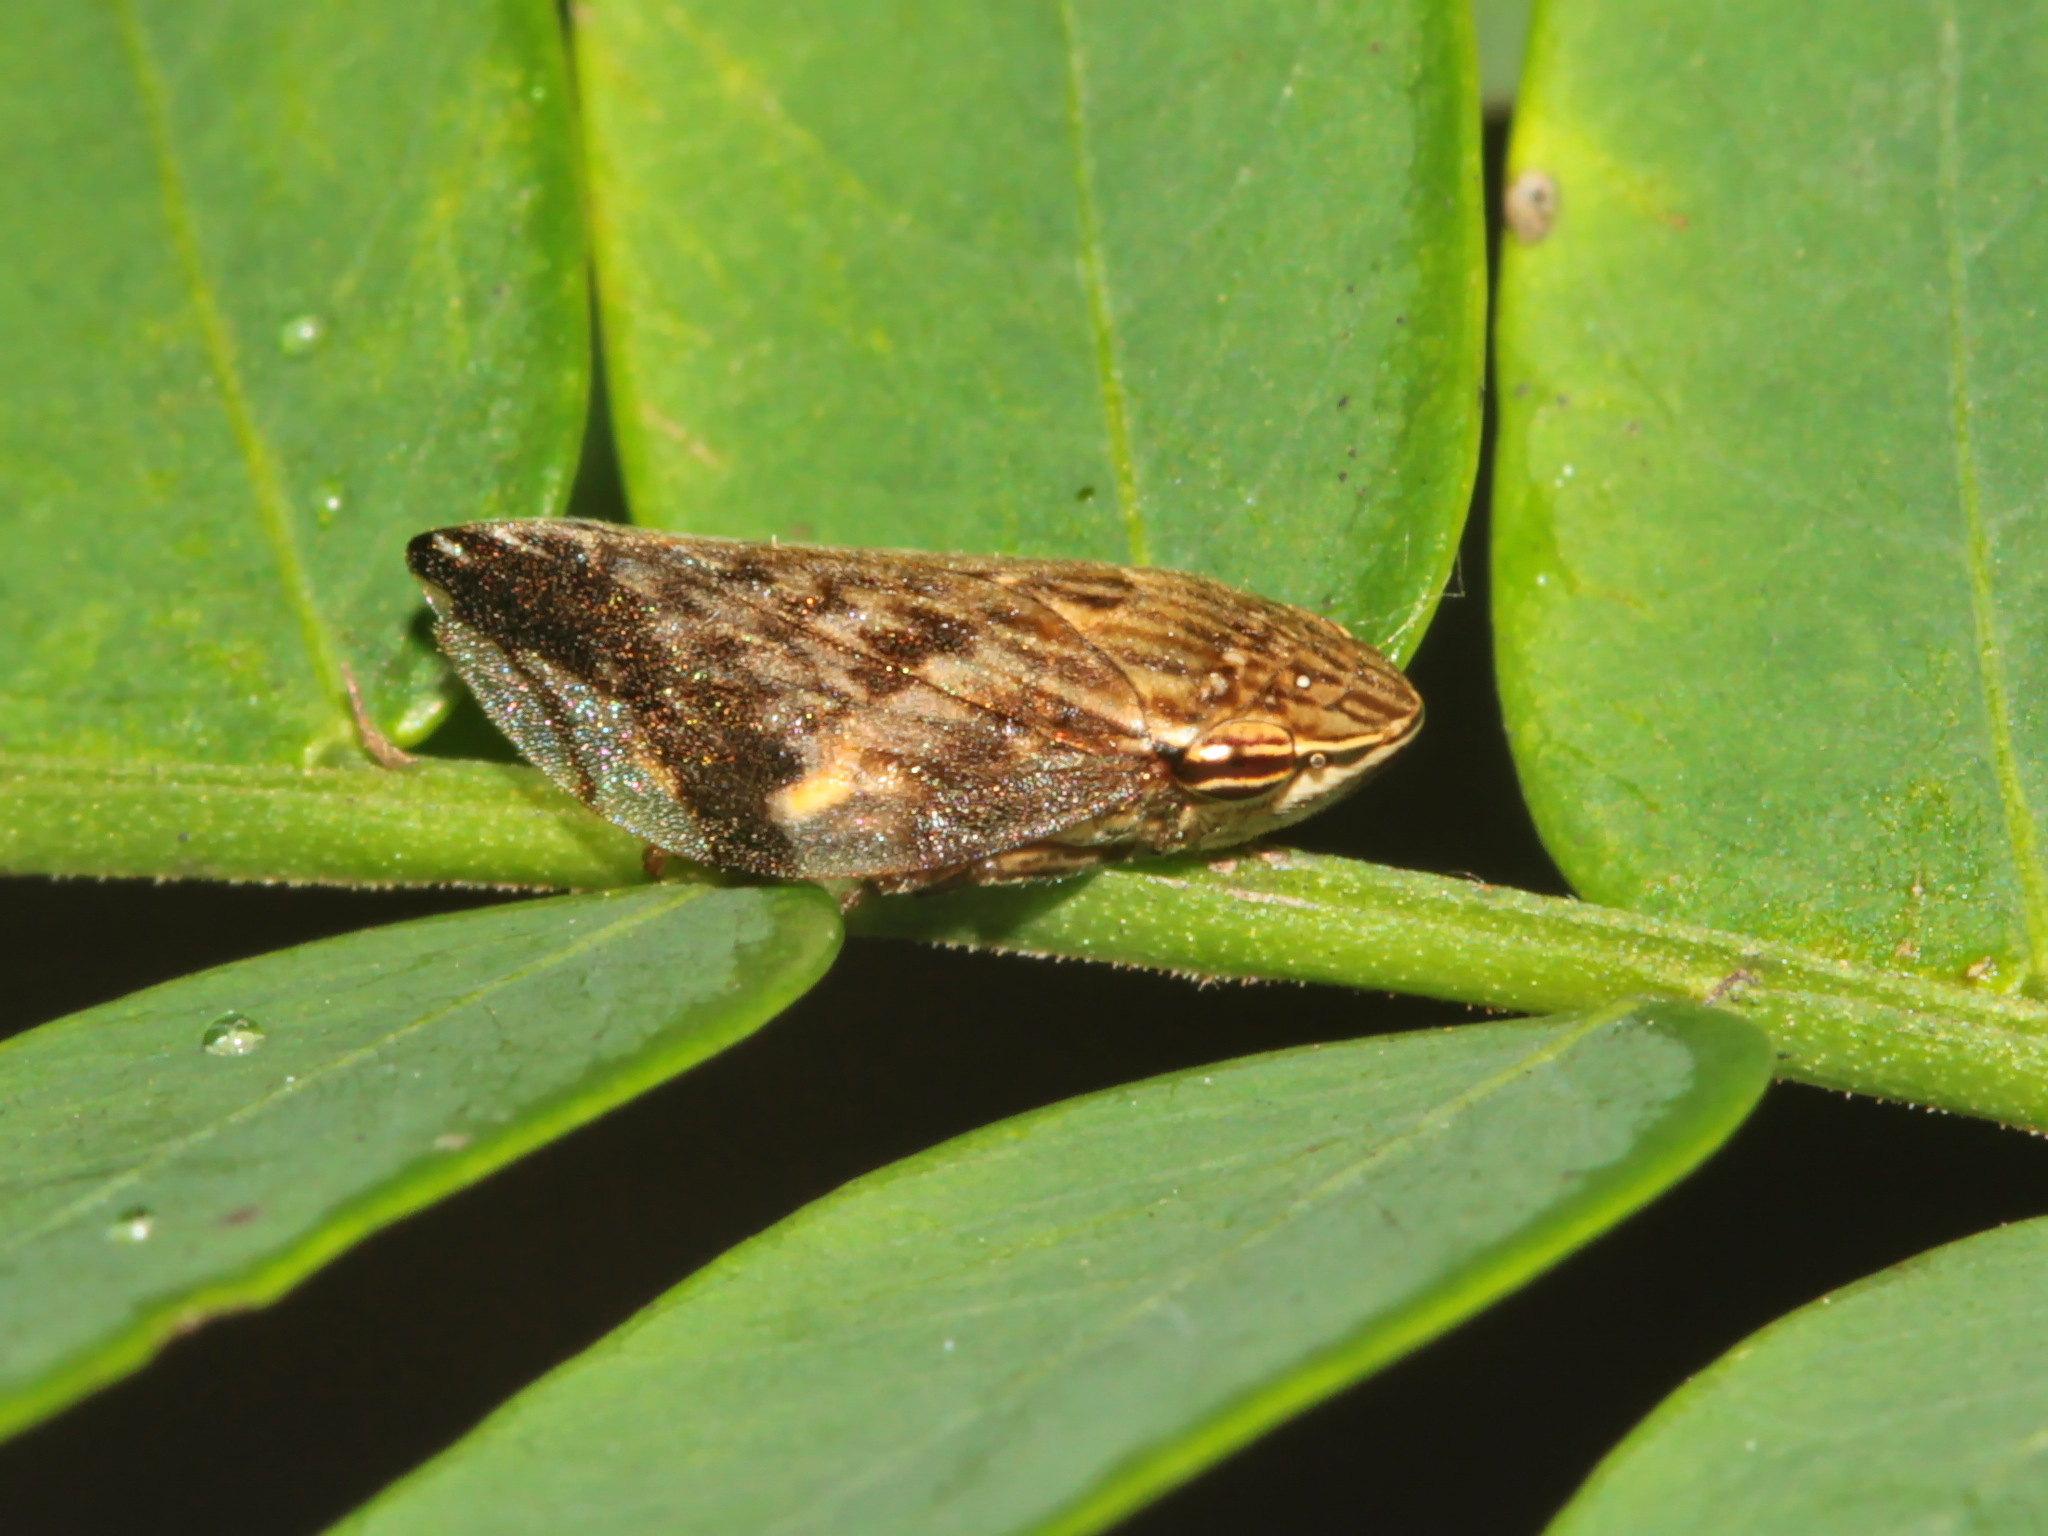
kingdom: Animalia
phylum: Arthropoda
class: Insecta
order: Hemiptera
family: Aphrophoridae
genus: Clovia
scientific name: Clovia conifera
